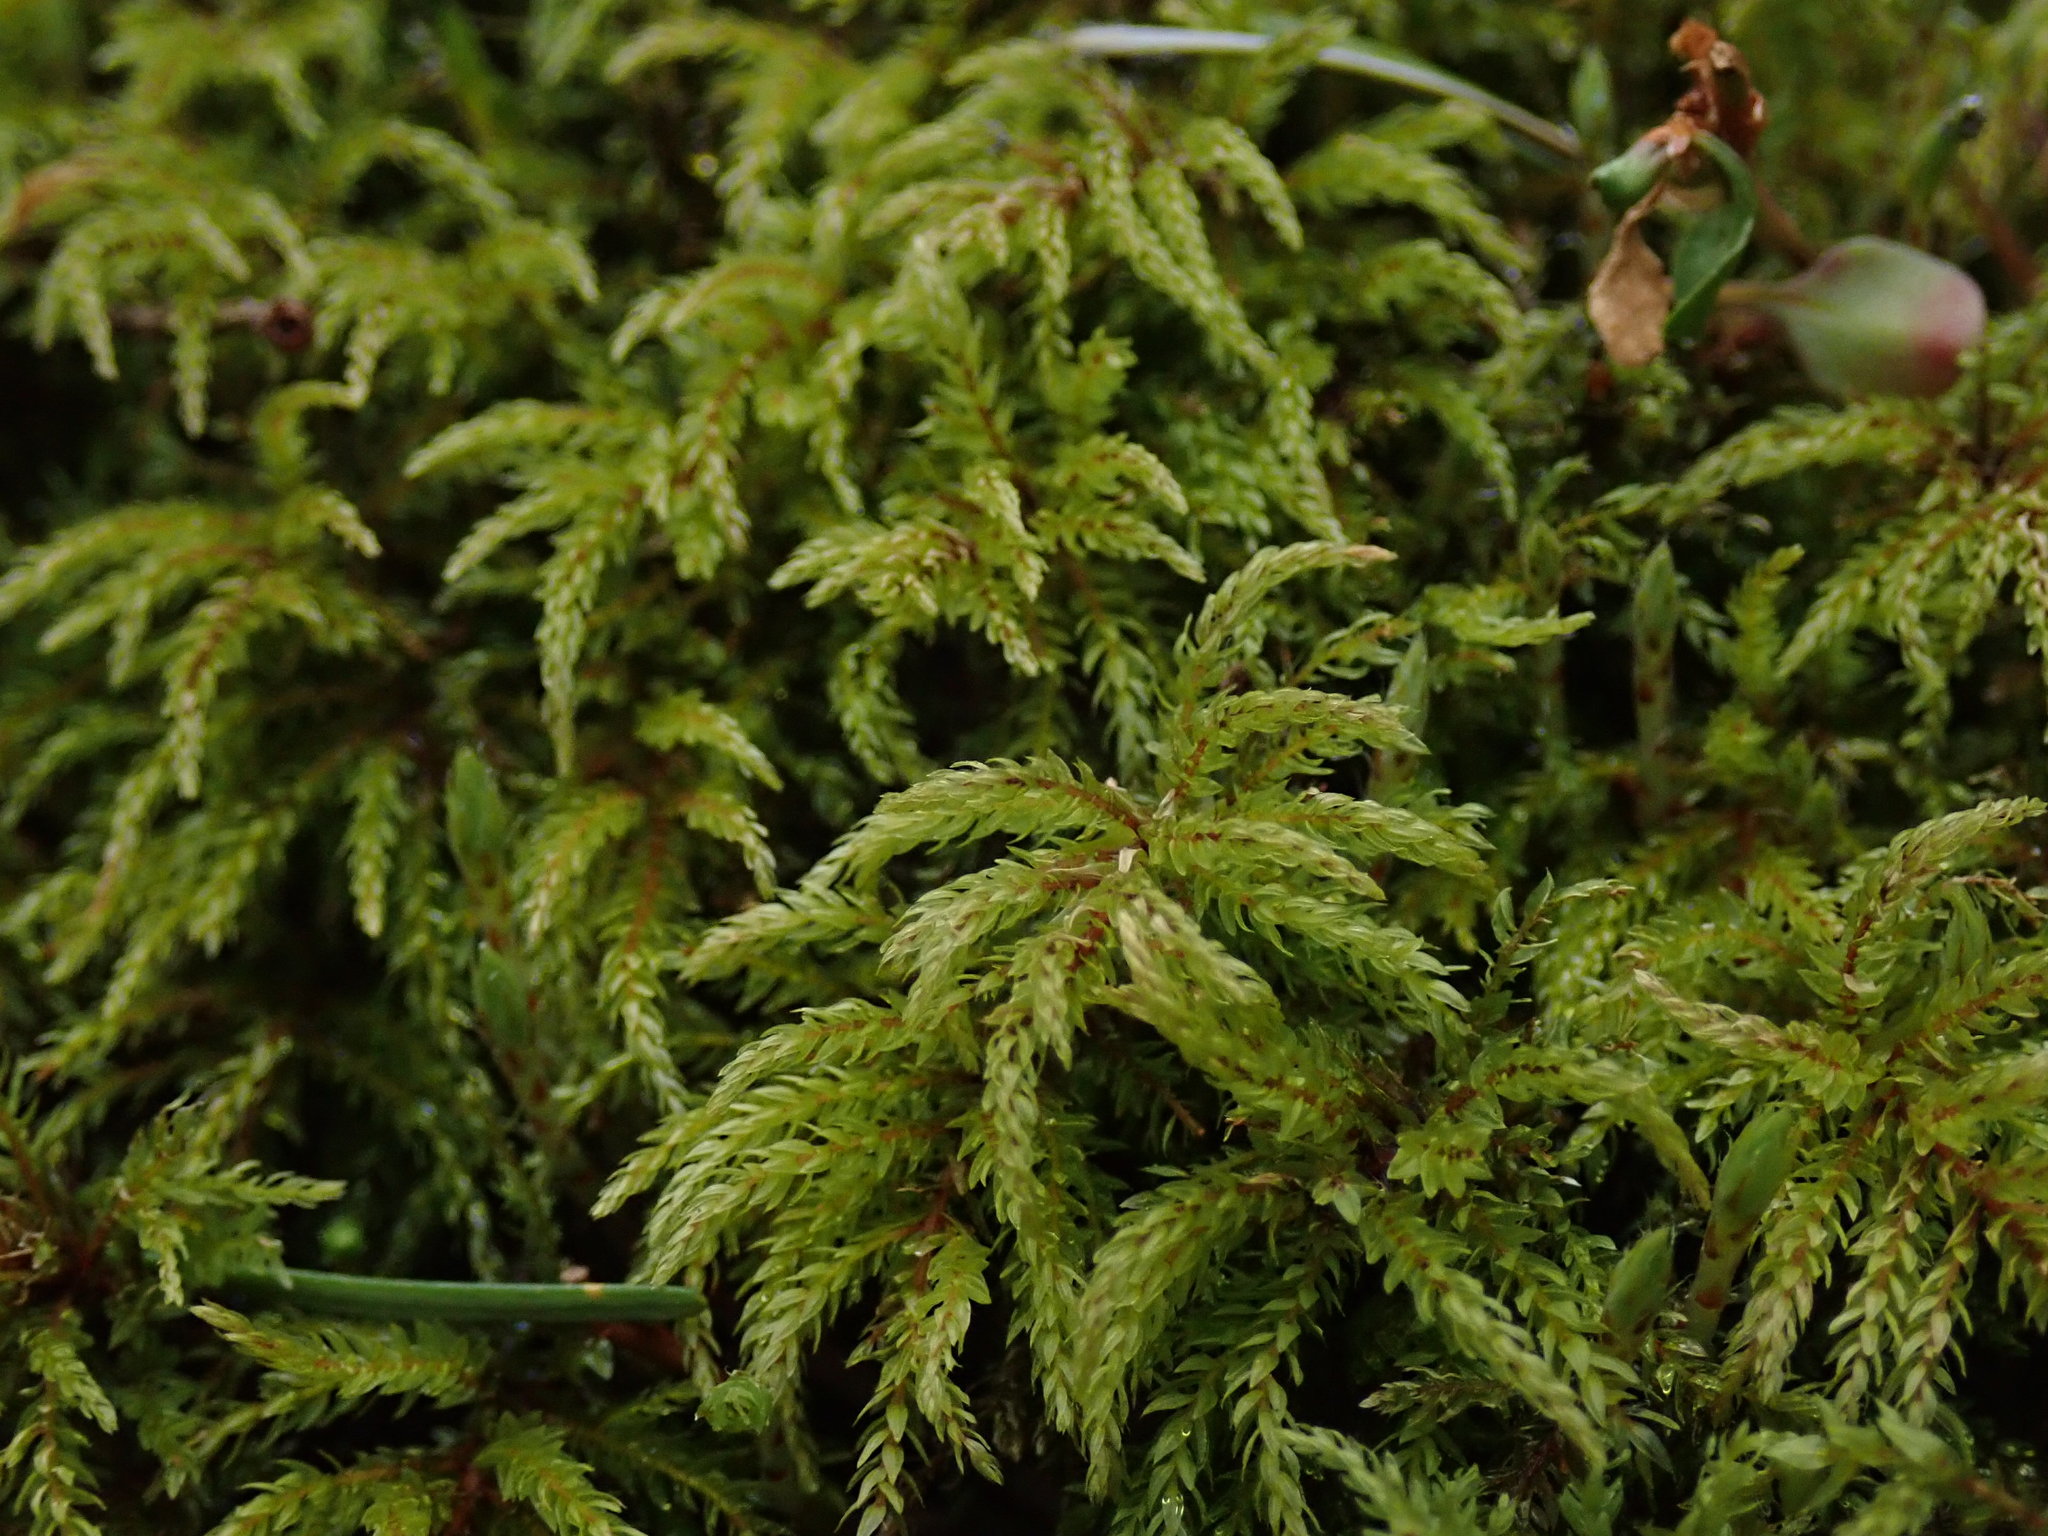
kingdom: Plantae
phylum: Bryophyta
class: Bryopsida
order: Bryales
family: Mniaceae
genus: Leucolepis
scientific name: Leucolepis acanthoneura
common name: Leucolepis umbrella moss
